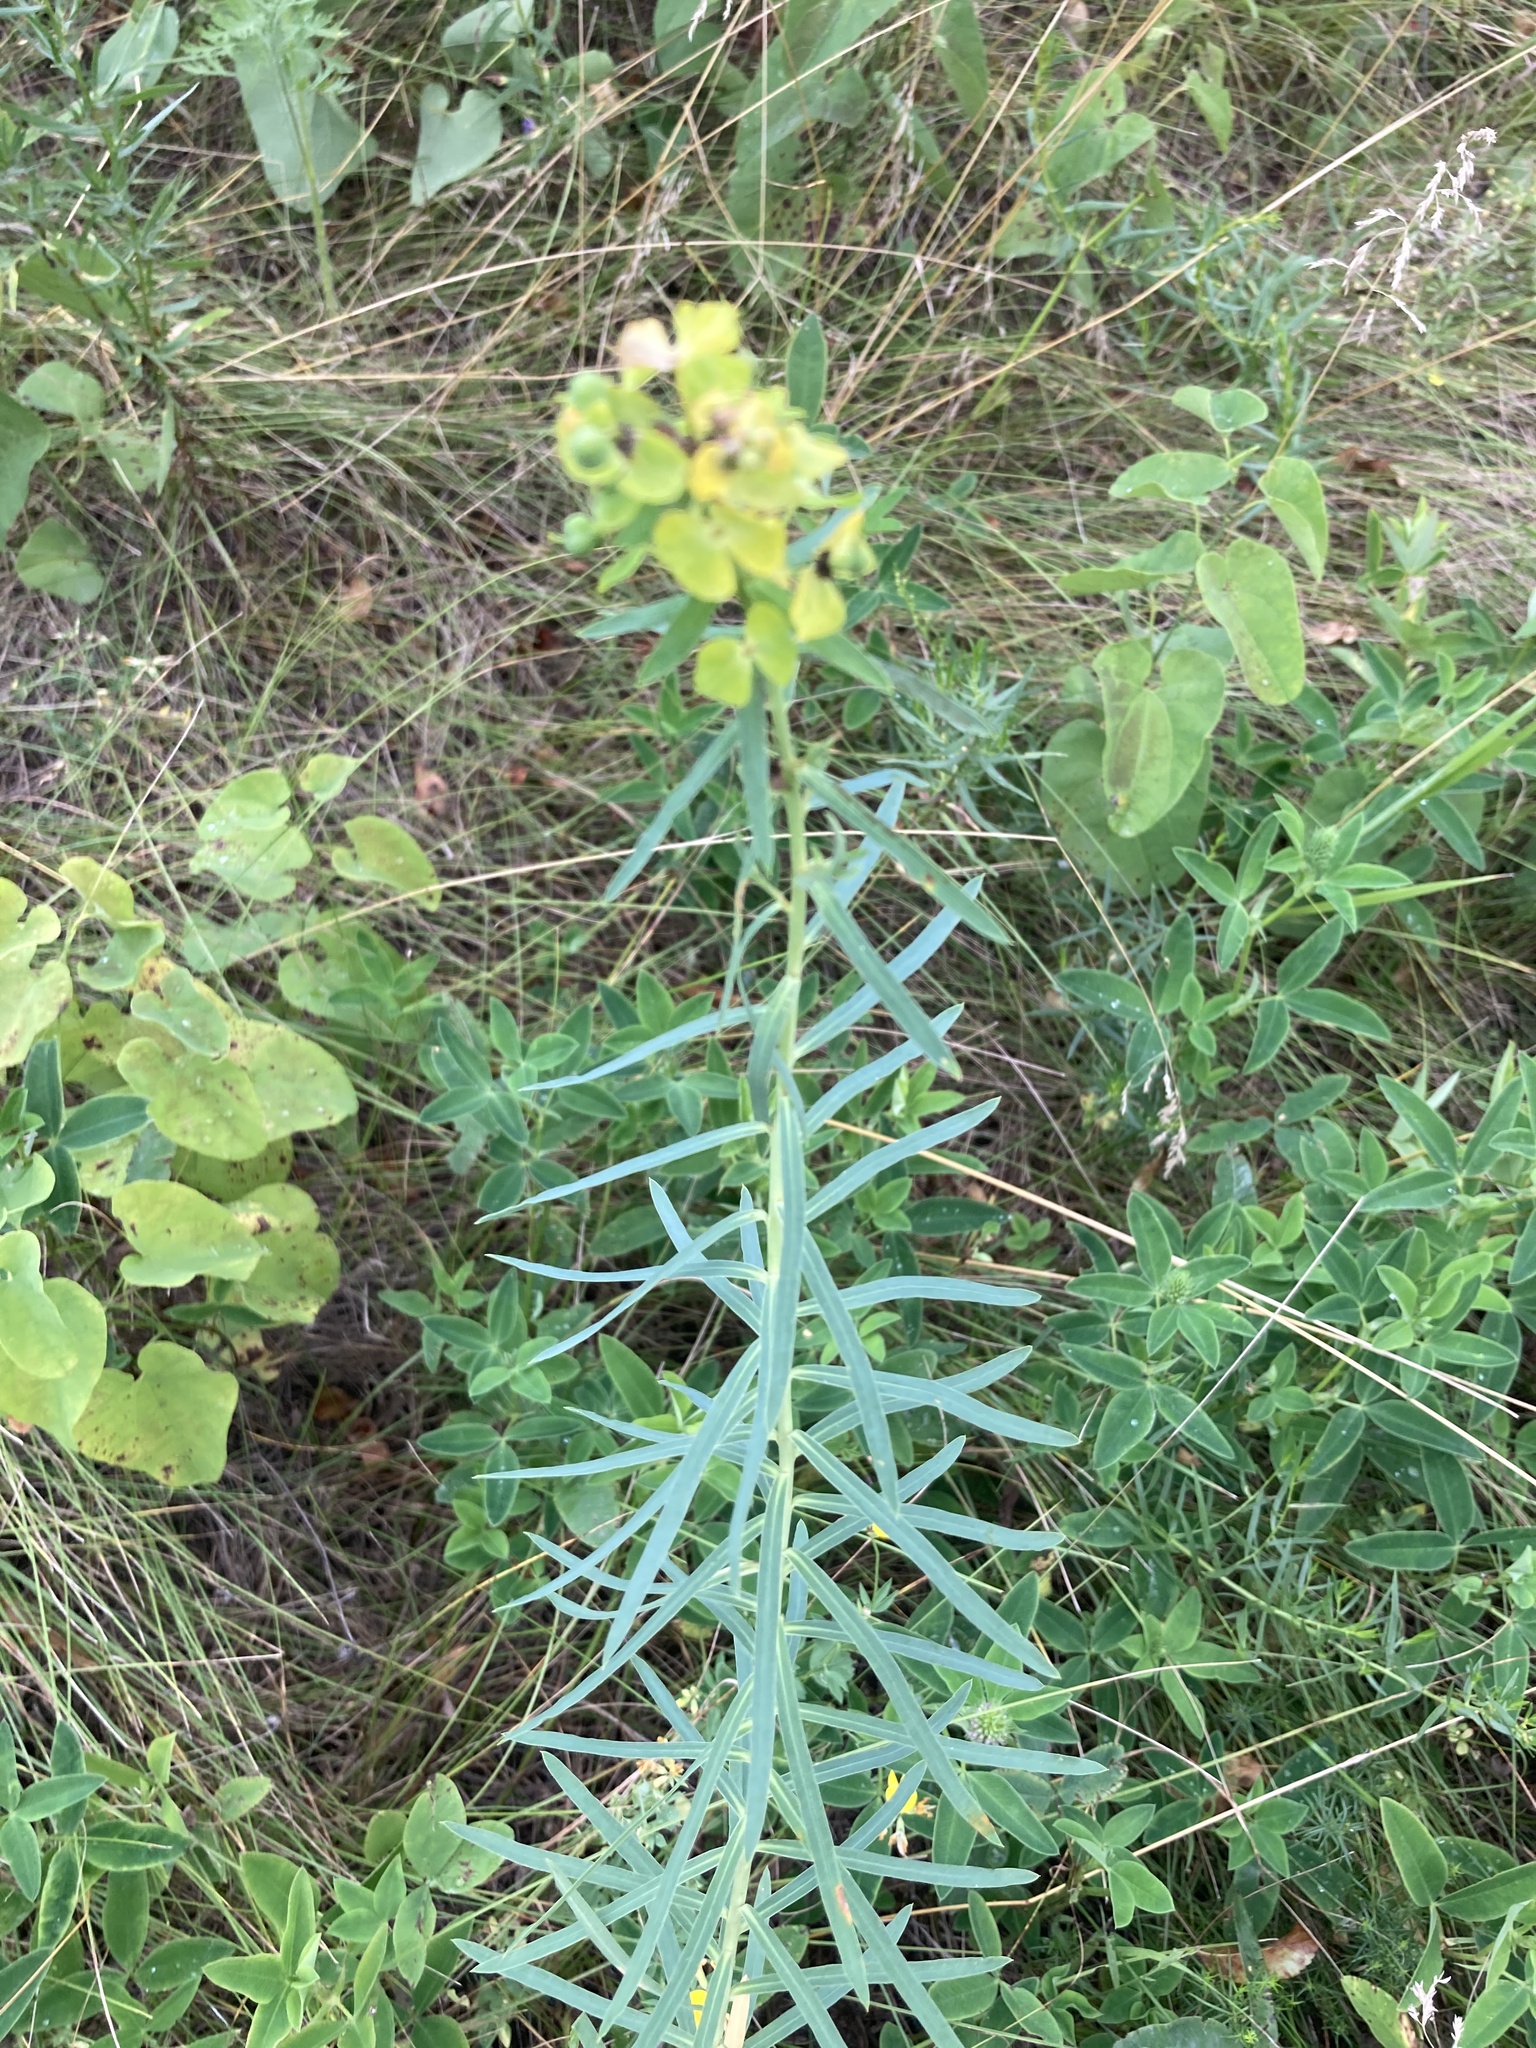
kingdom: Plantae
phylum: Tracheophyta
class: Magnoliopsida
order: Malpighiales
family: Euphorbiaceae
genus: Euphorbia
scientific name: Euphorbia virgata
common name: Leafy spurge
